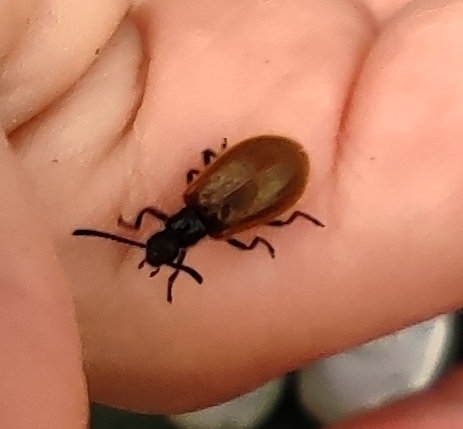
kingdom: Animalia
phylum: Arthropoda
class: Insecta
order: Coleoptera
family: Tenebrionidae
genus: Lagria
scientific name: Lagria hirta
